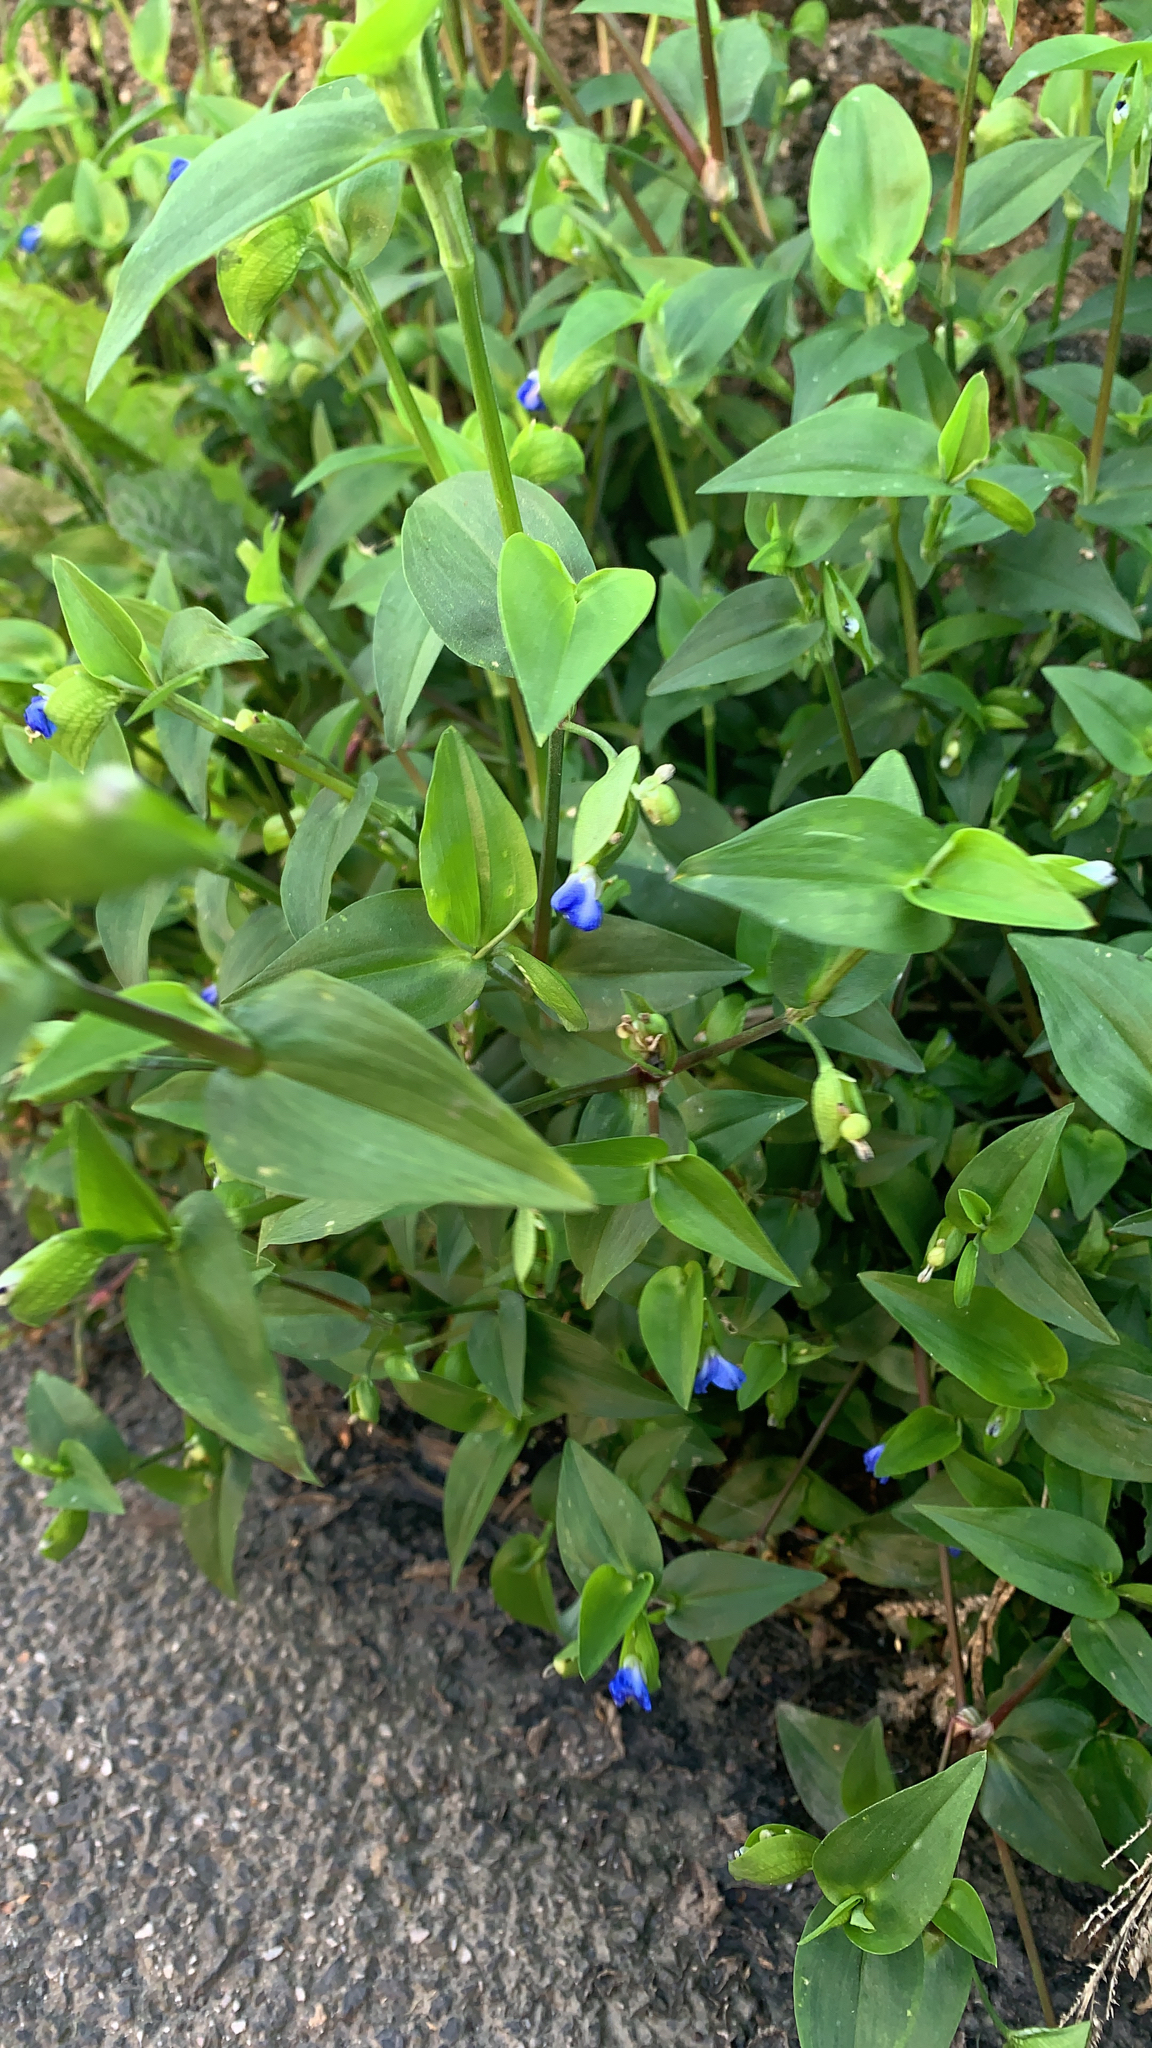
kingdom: Plantae
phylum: Tracheophyta
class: Liliopsida
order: Commelinales
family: Commelinaceae
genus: Commelina
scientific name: Commelina communis
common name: Asiatic dayflower
